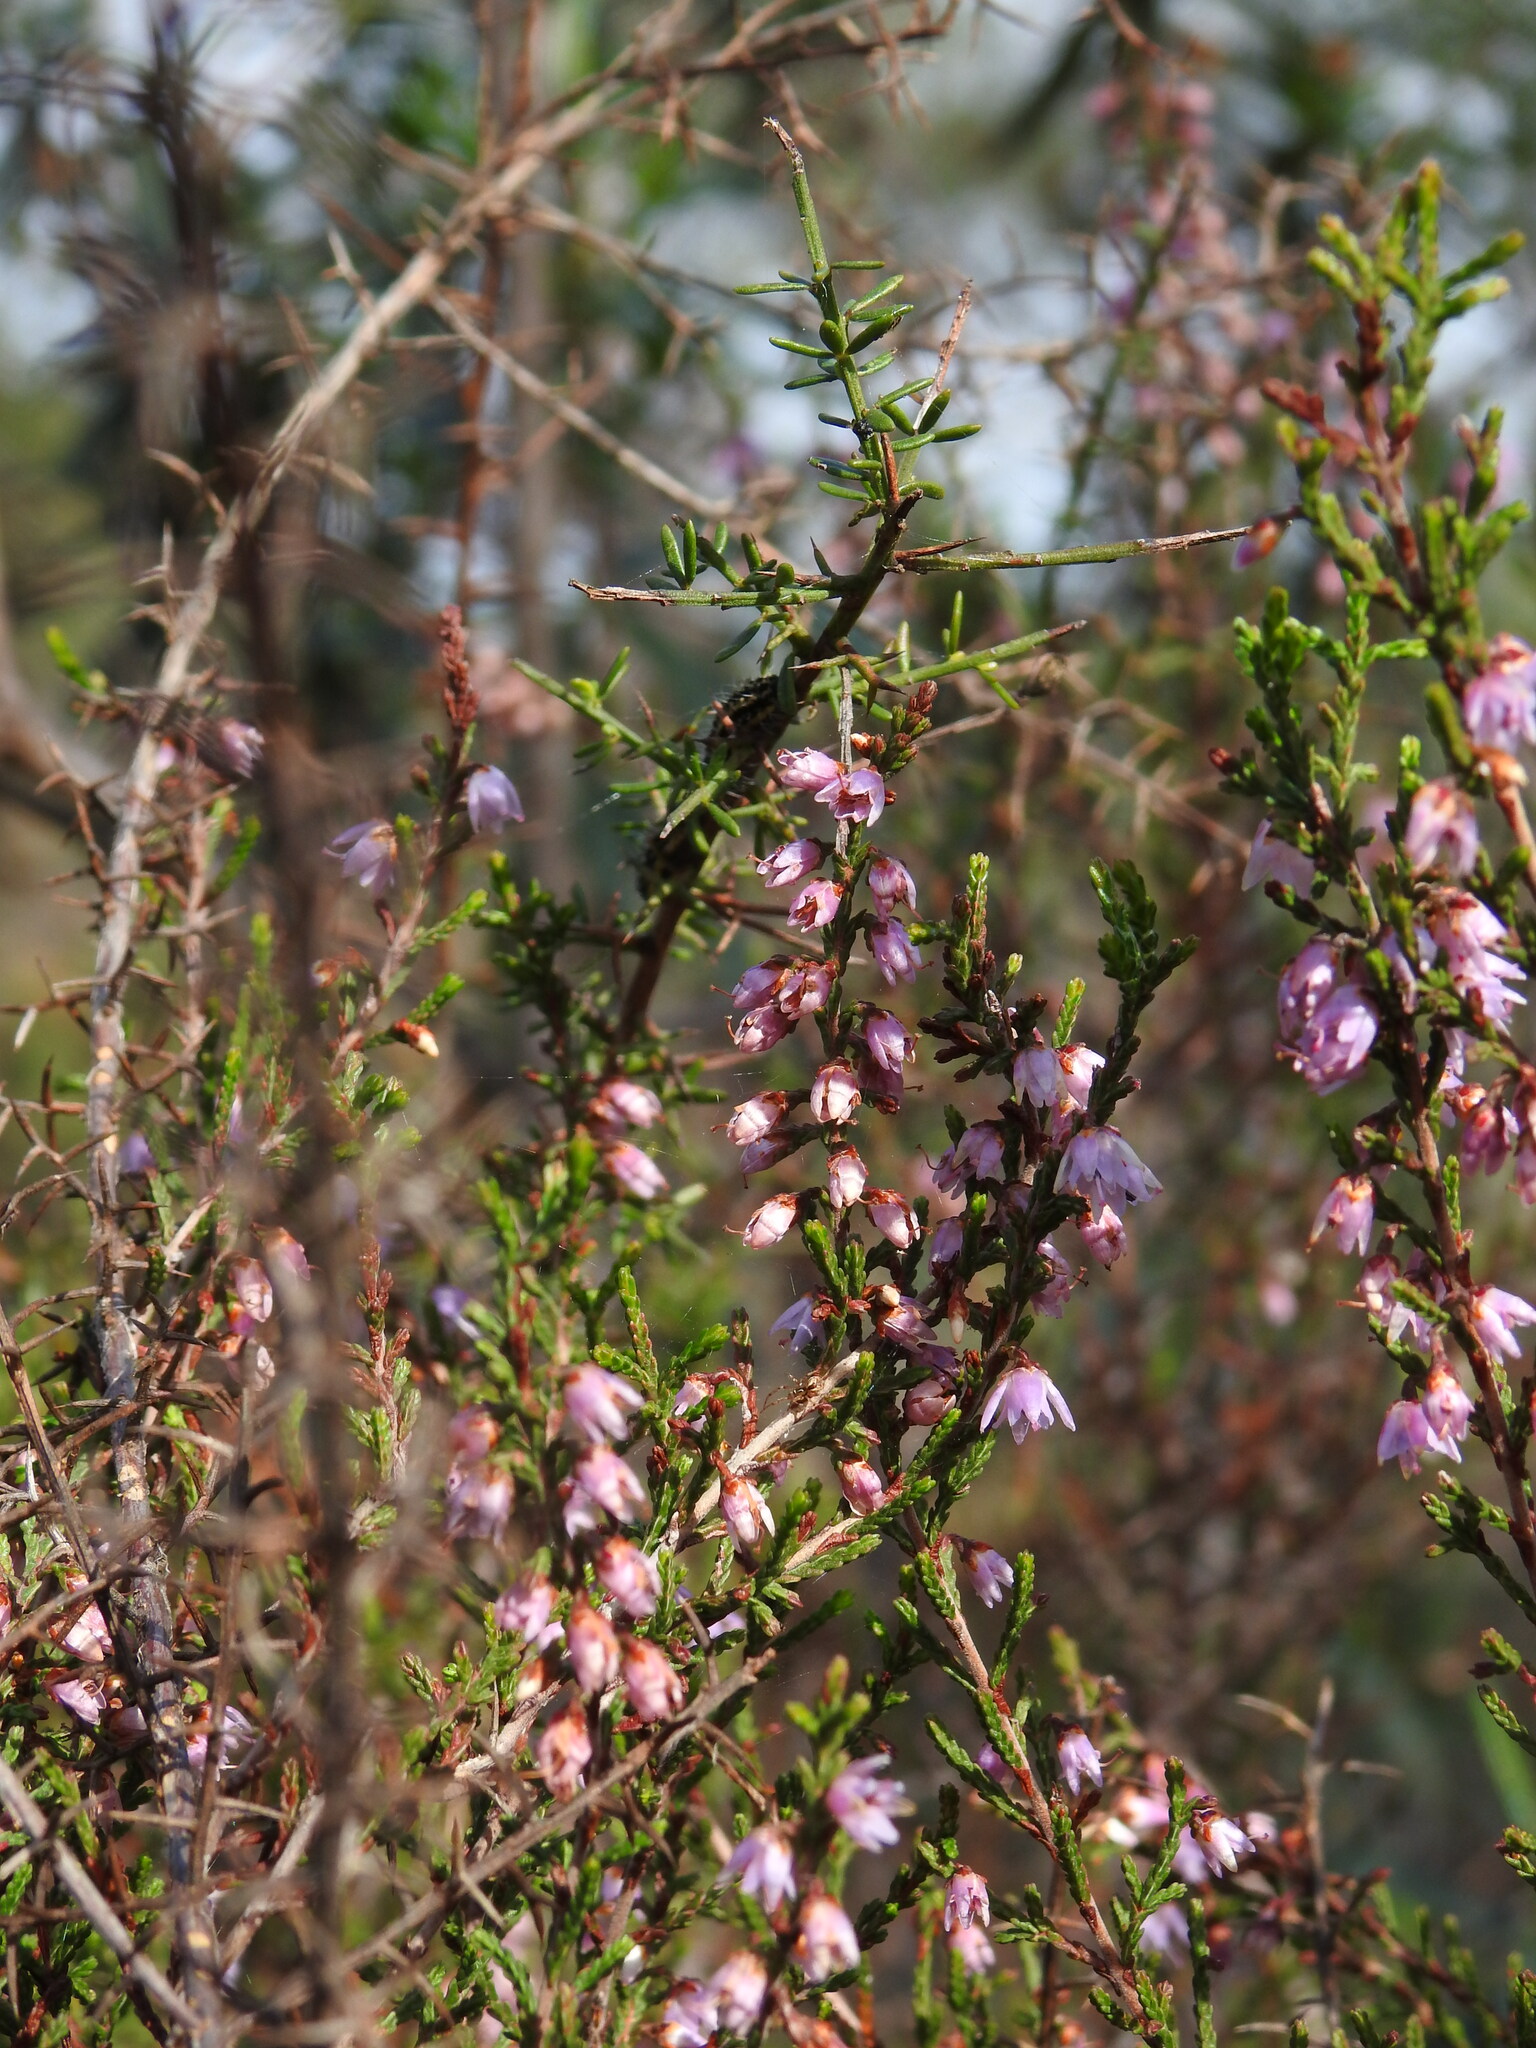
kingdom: Plantae
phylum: Tracheophyta
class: Magnoliopsida
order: Ericales
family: Ericaceae
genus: Calluna
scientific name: Calluna vulgaris
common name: Heather
